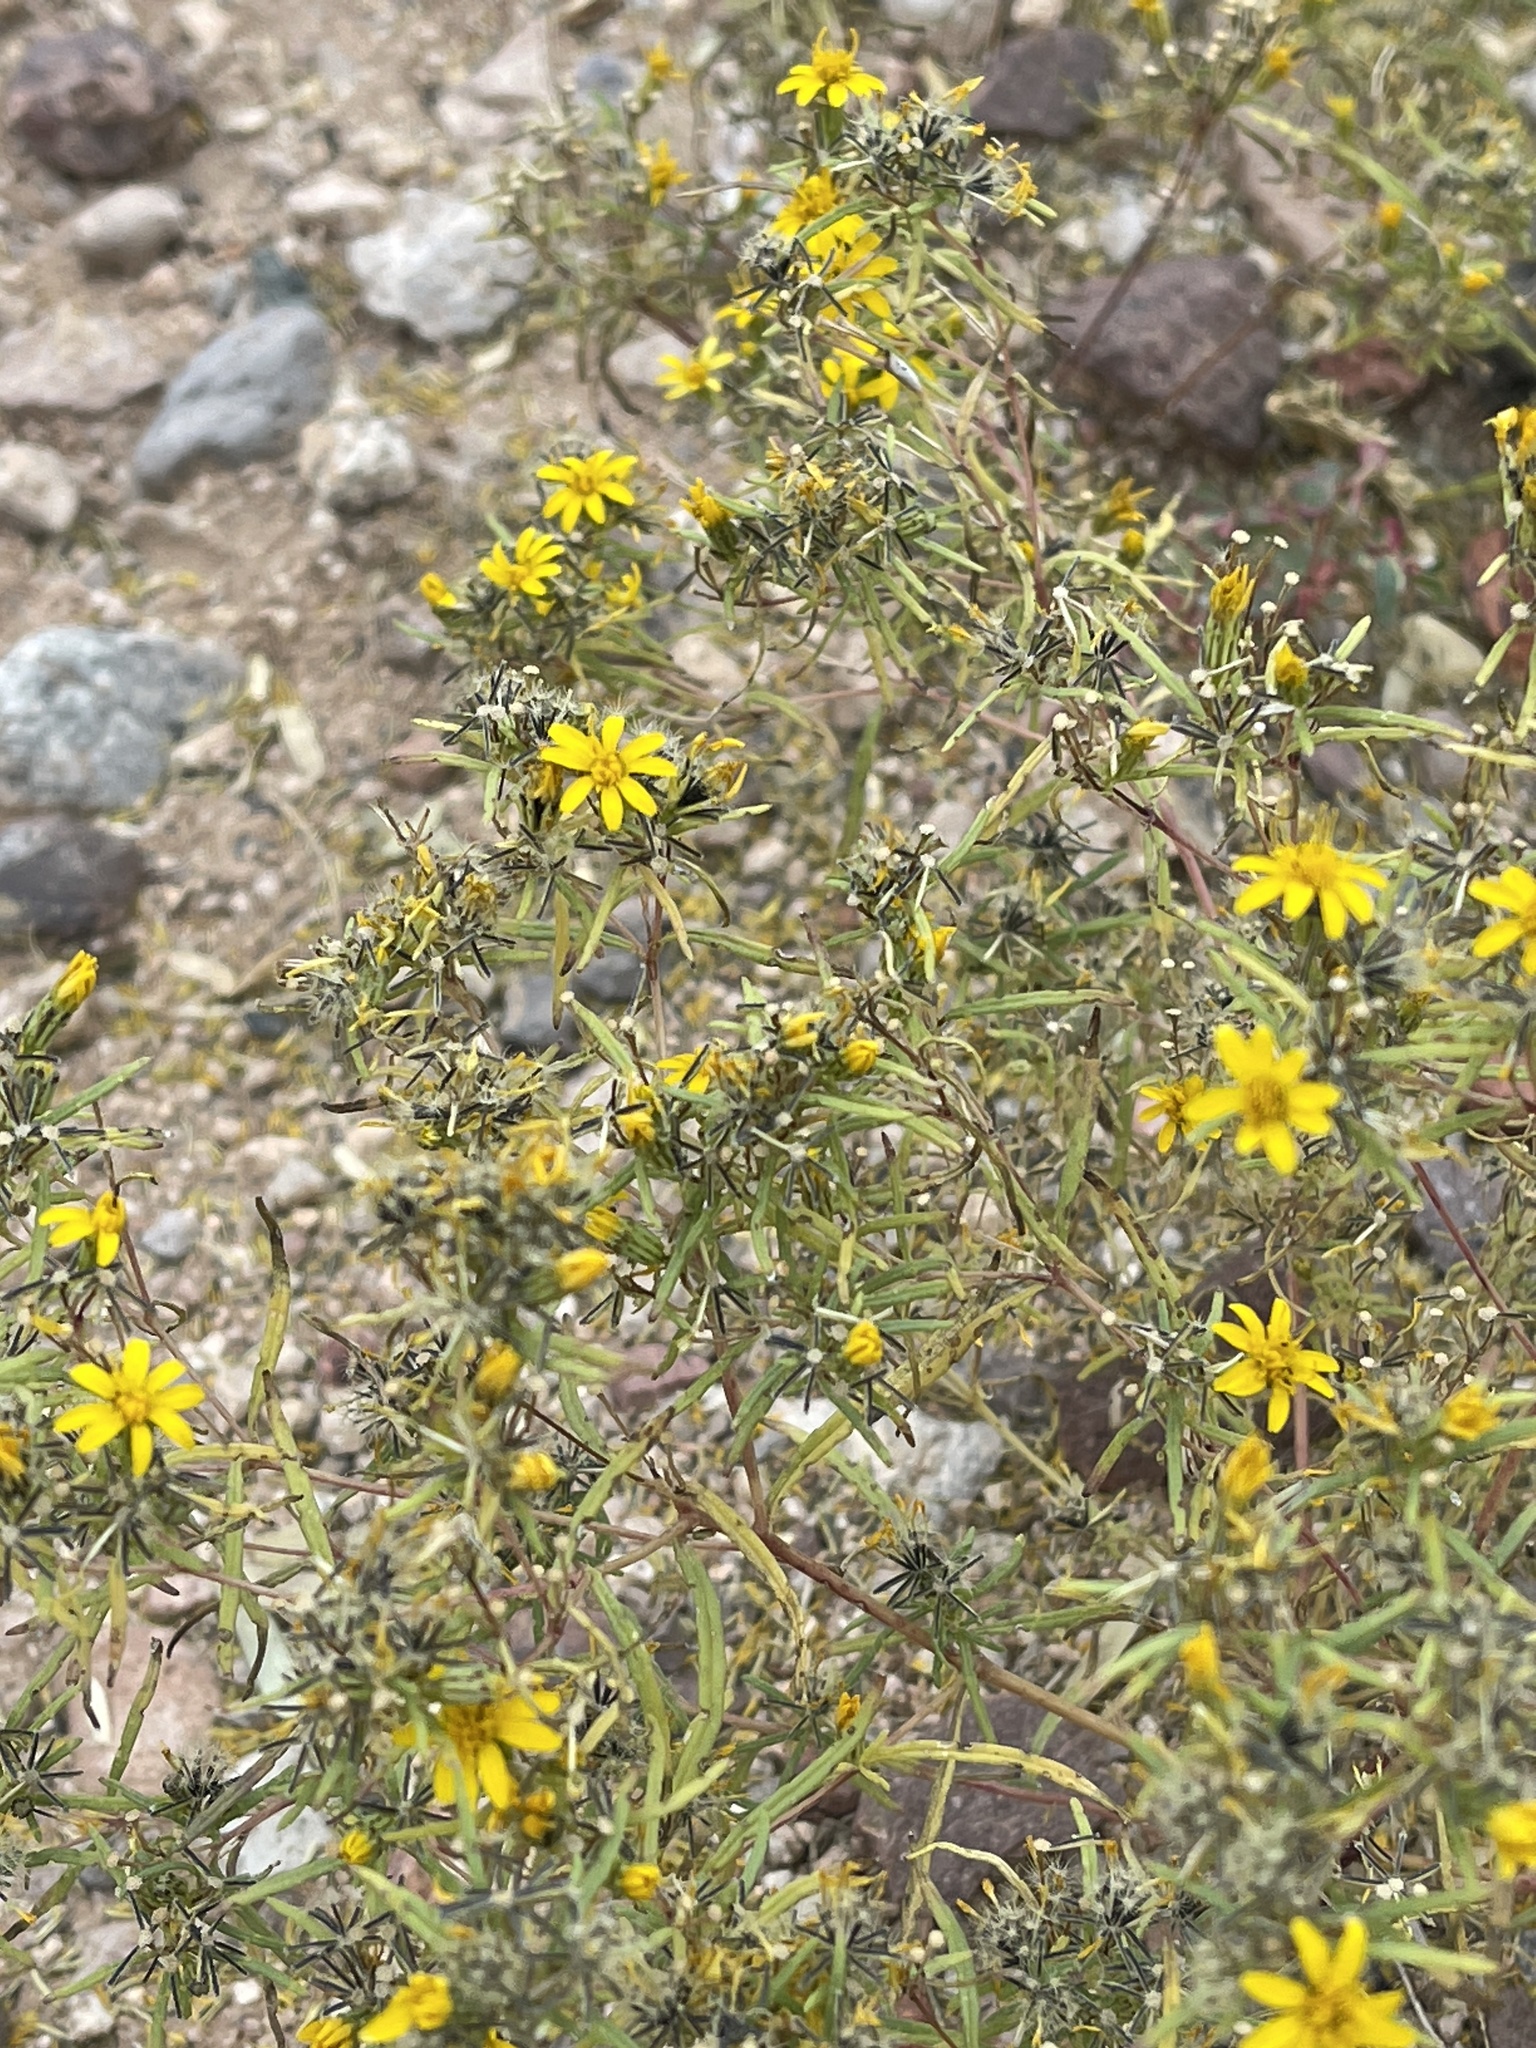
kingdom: Plantae
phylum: Tracheophyta
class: Magnoliopsida
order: Asterales
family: Asteraceae
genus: Pectis
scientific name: Pectis papposa
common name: Many-bristle chinchweed
